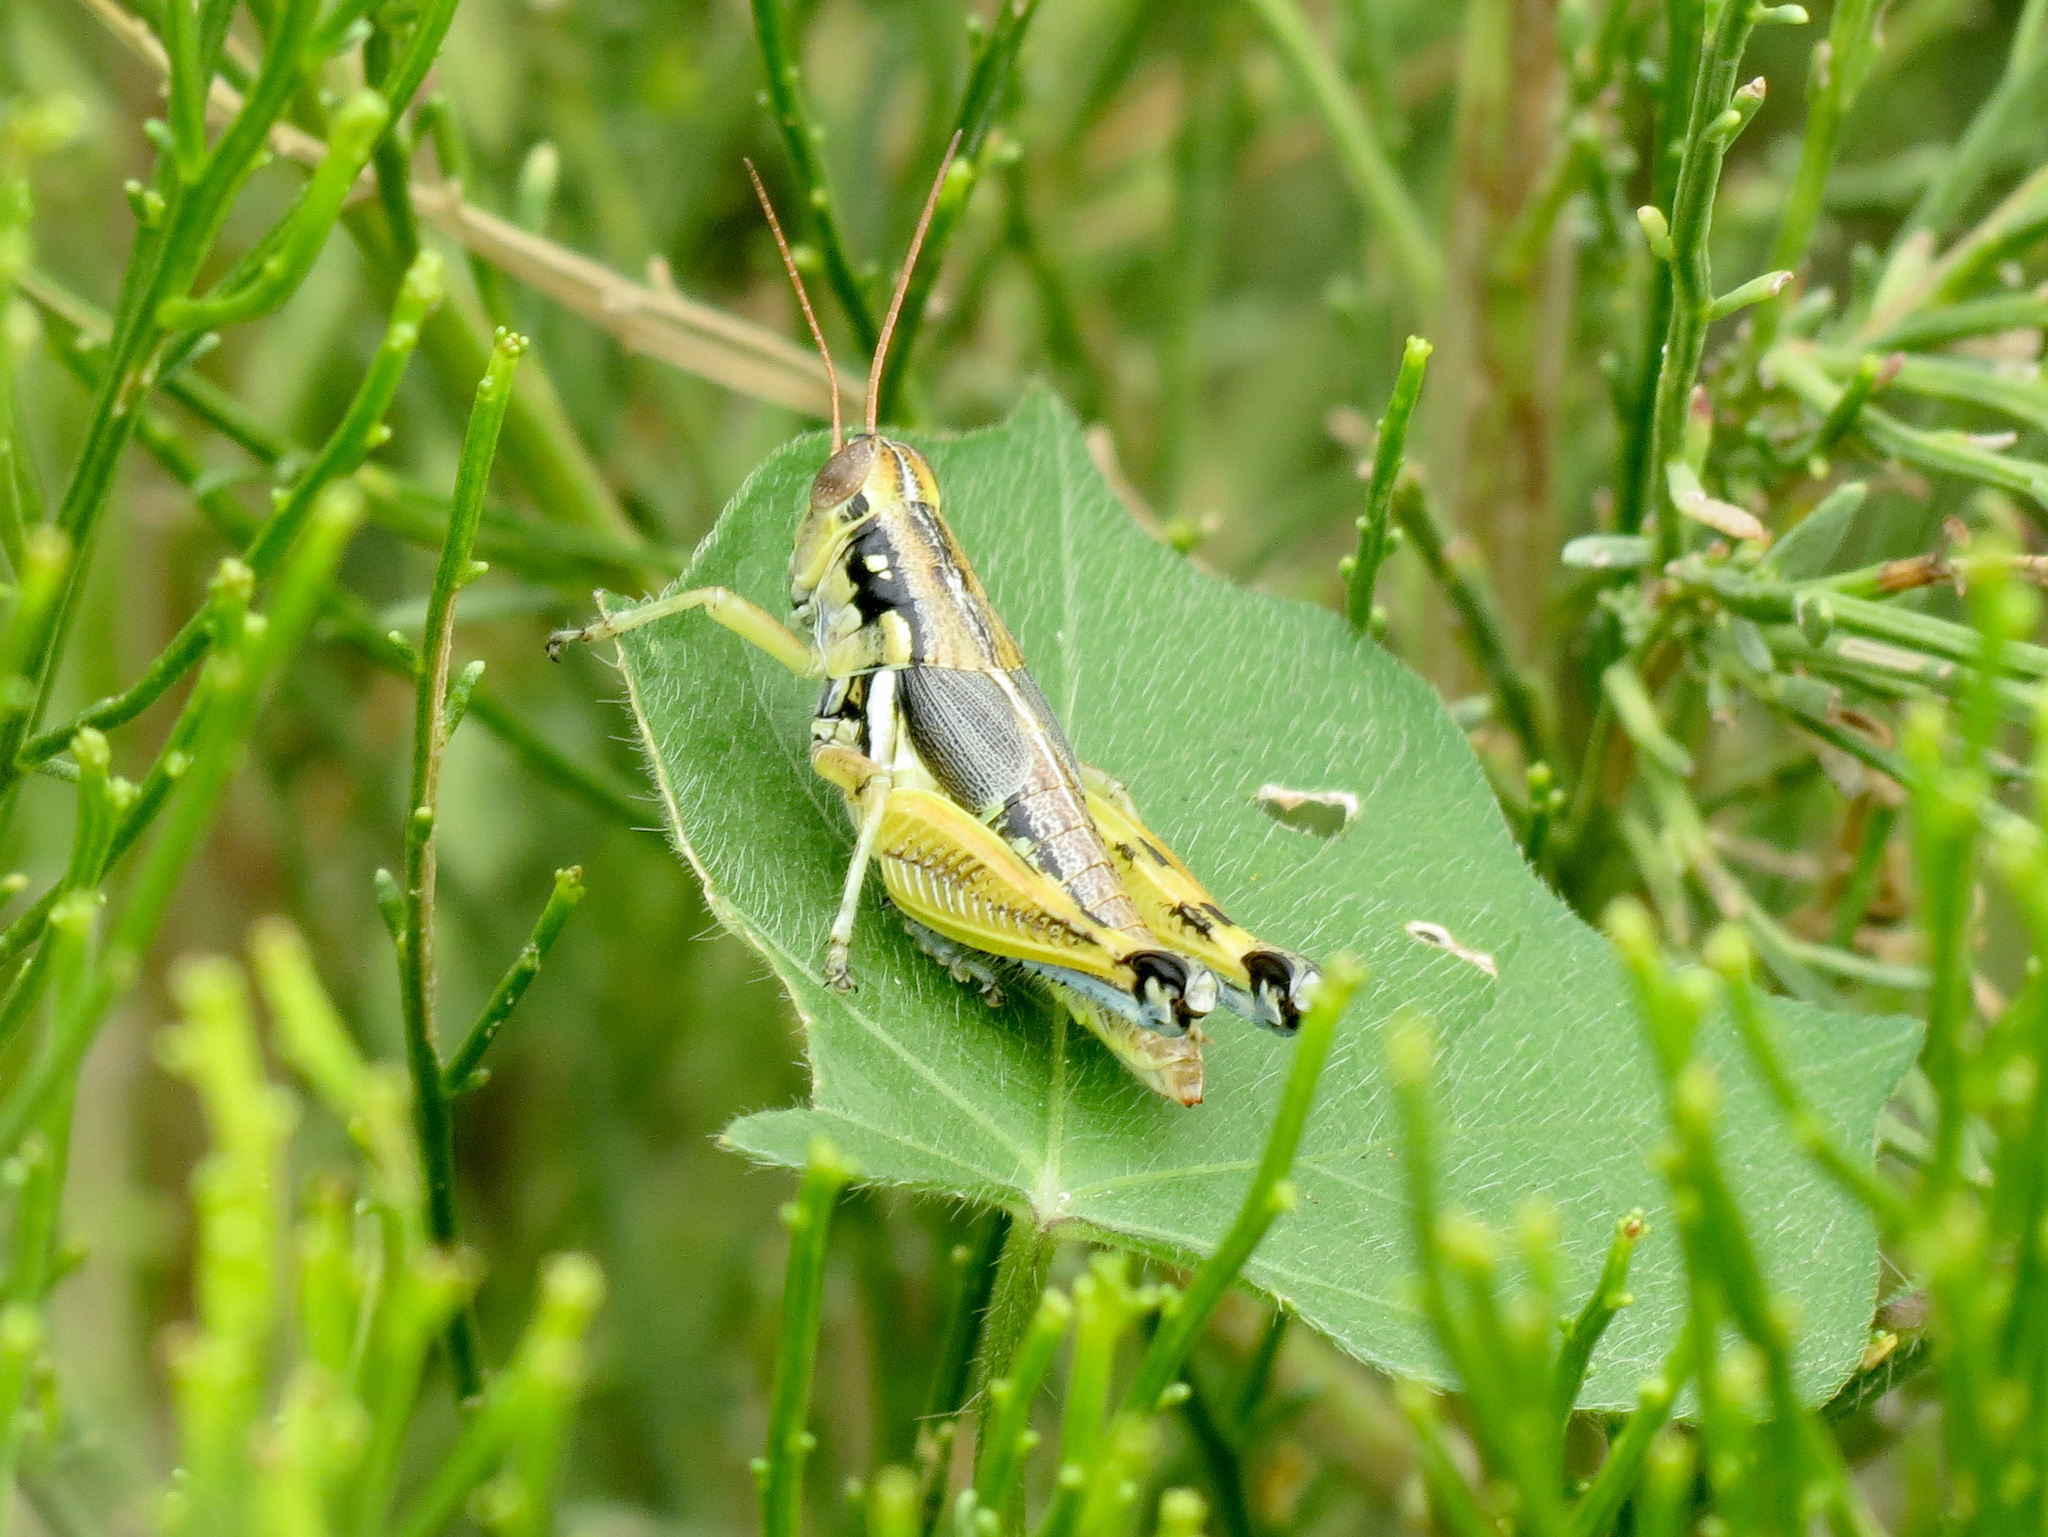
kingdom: Animalia
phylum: Arthropoda
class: Insecta
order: Orthoptera
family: Acrididae
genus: Melanoplus
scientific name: Melanoplus aridus
